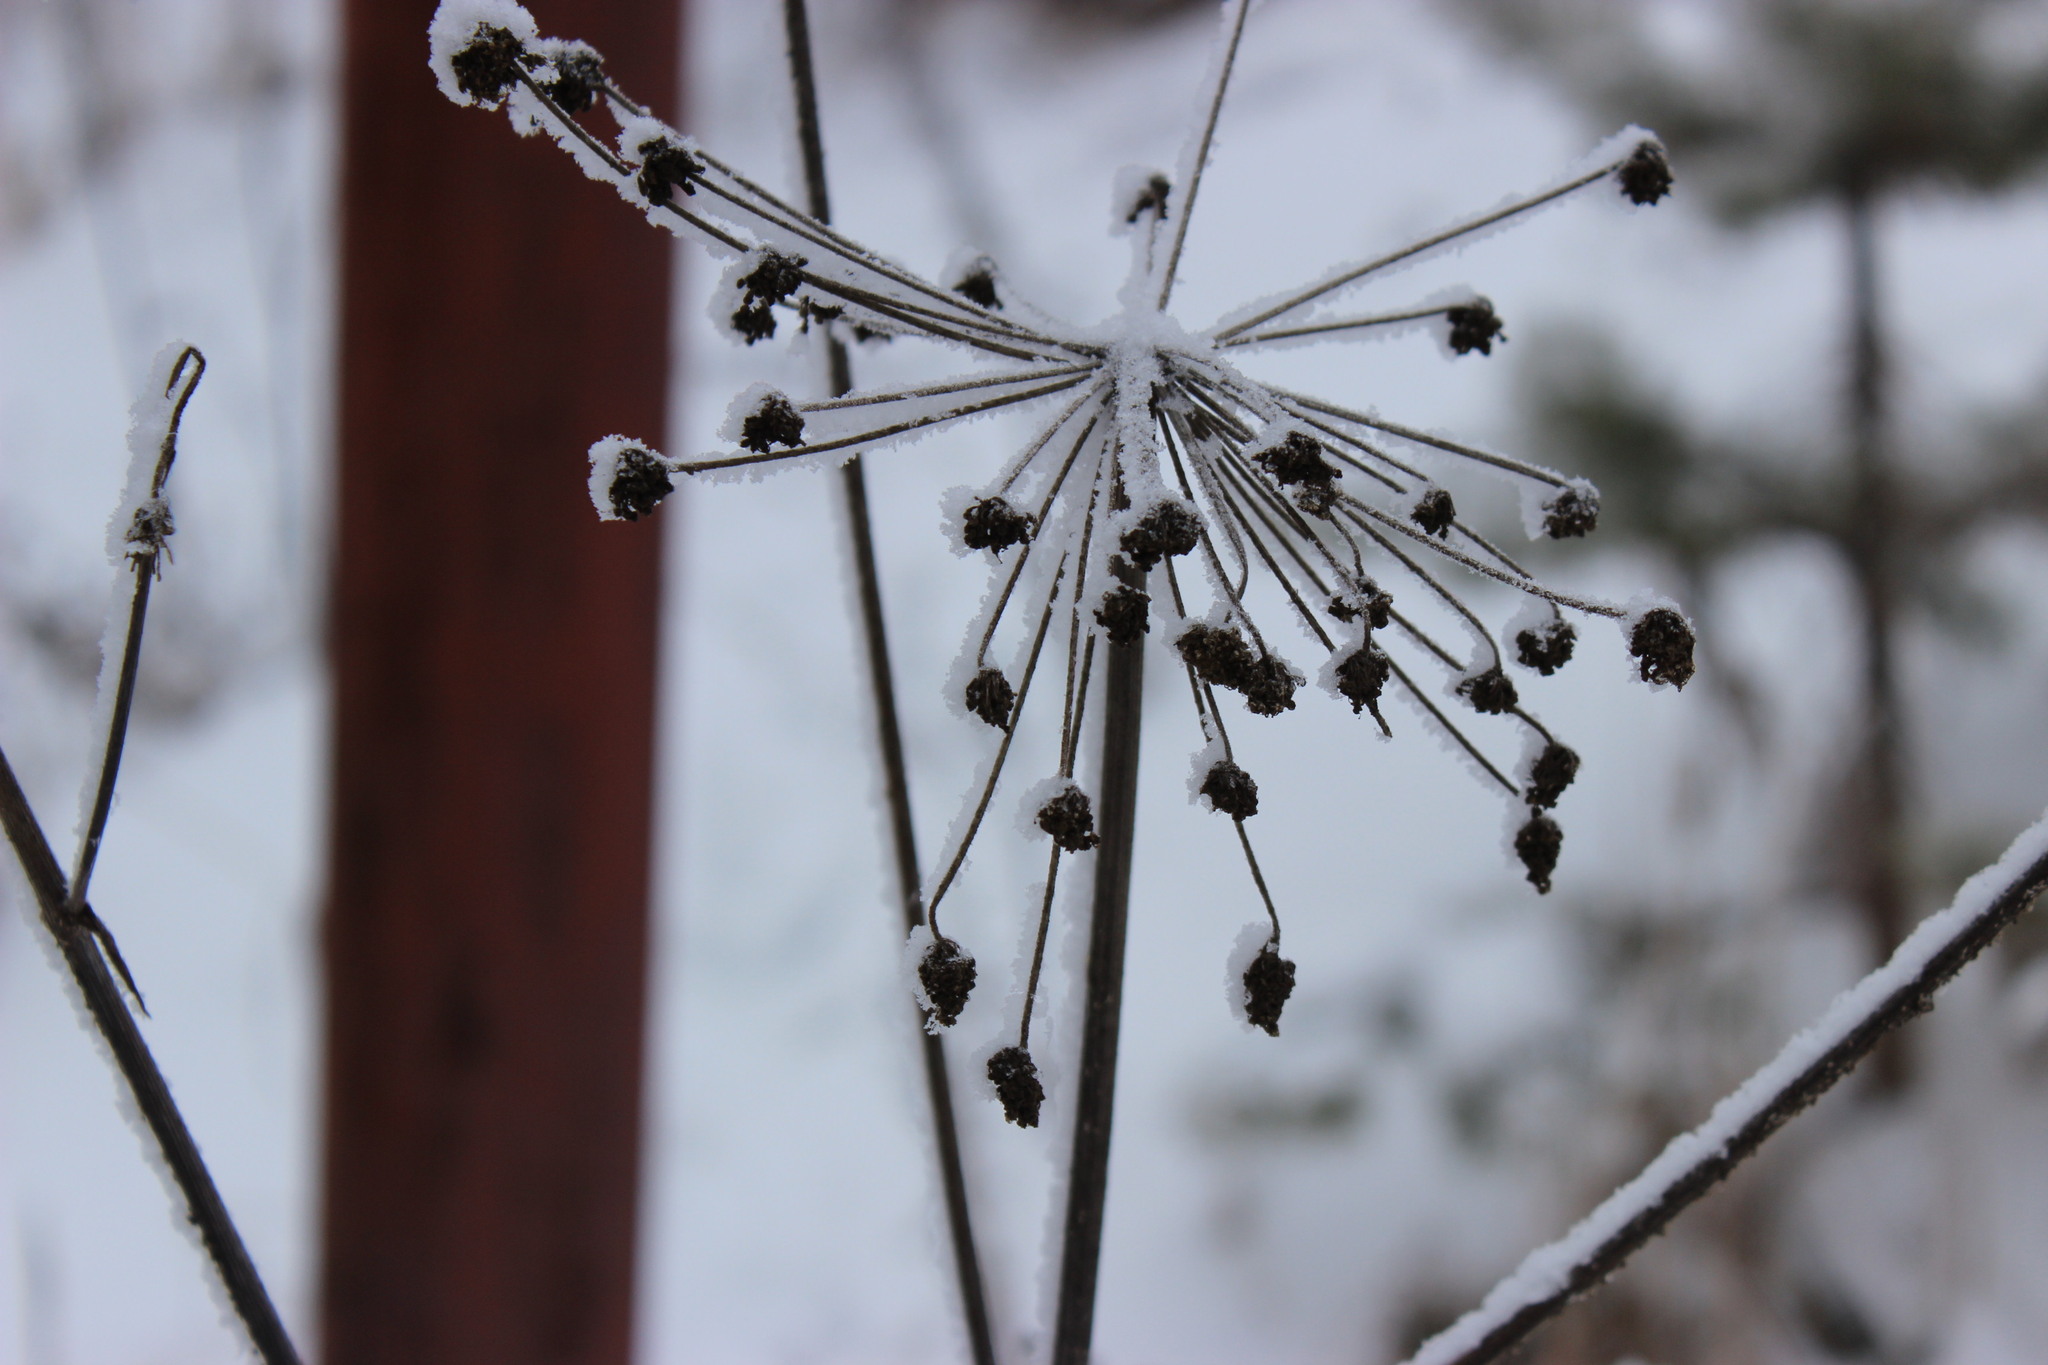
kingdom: Plantae
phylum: Tracheophyta
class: Magnoliopsida
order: Apiales
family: Apiaceae
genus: Angelica
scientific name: Angelica decurrens
